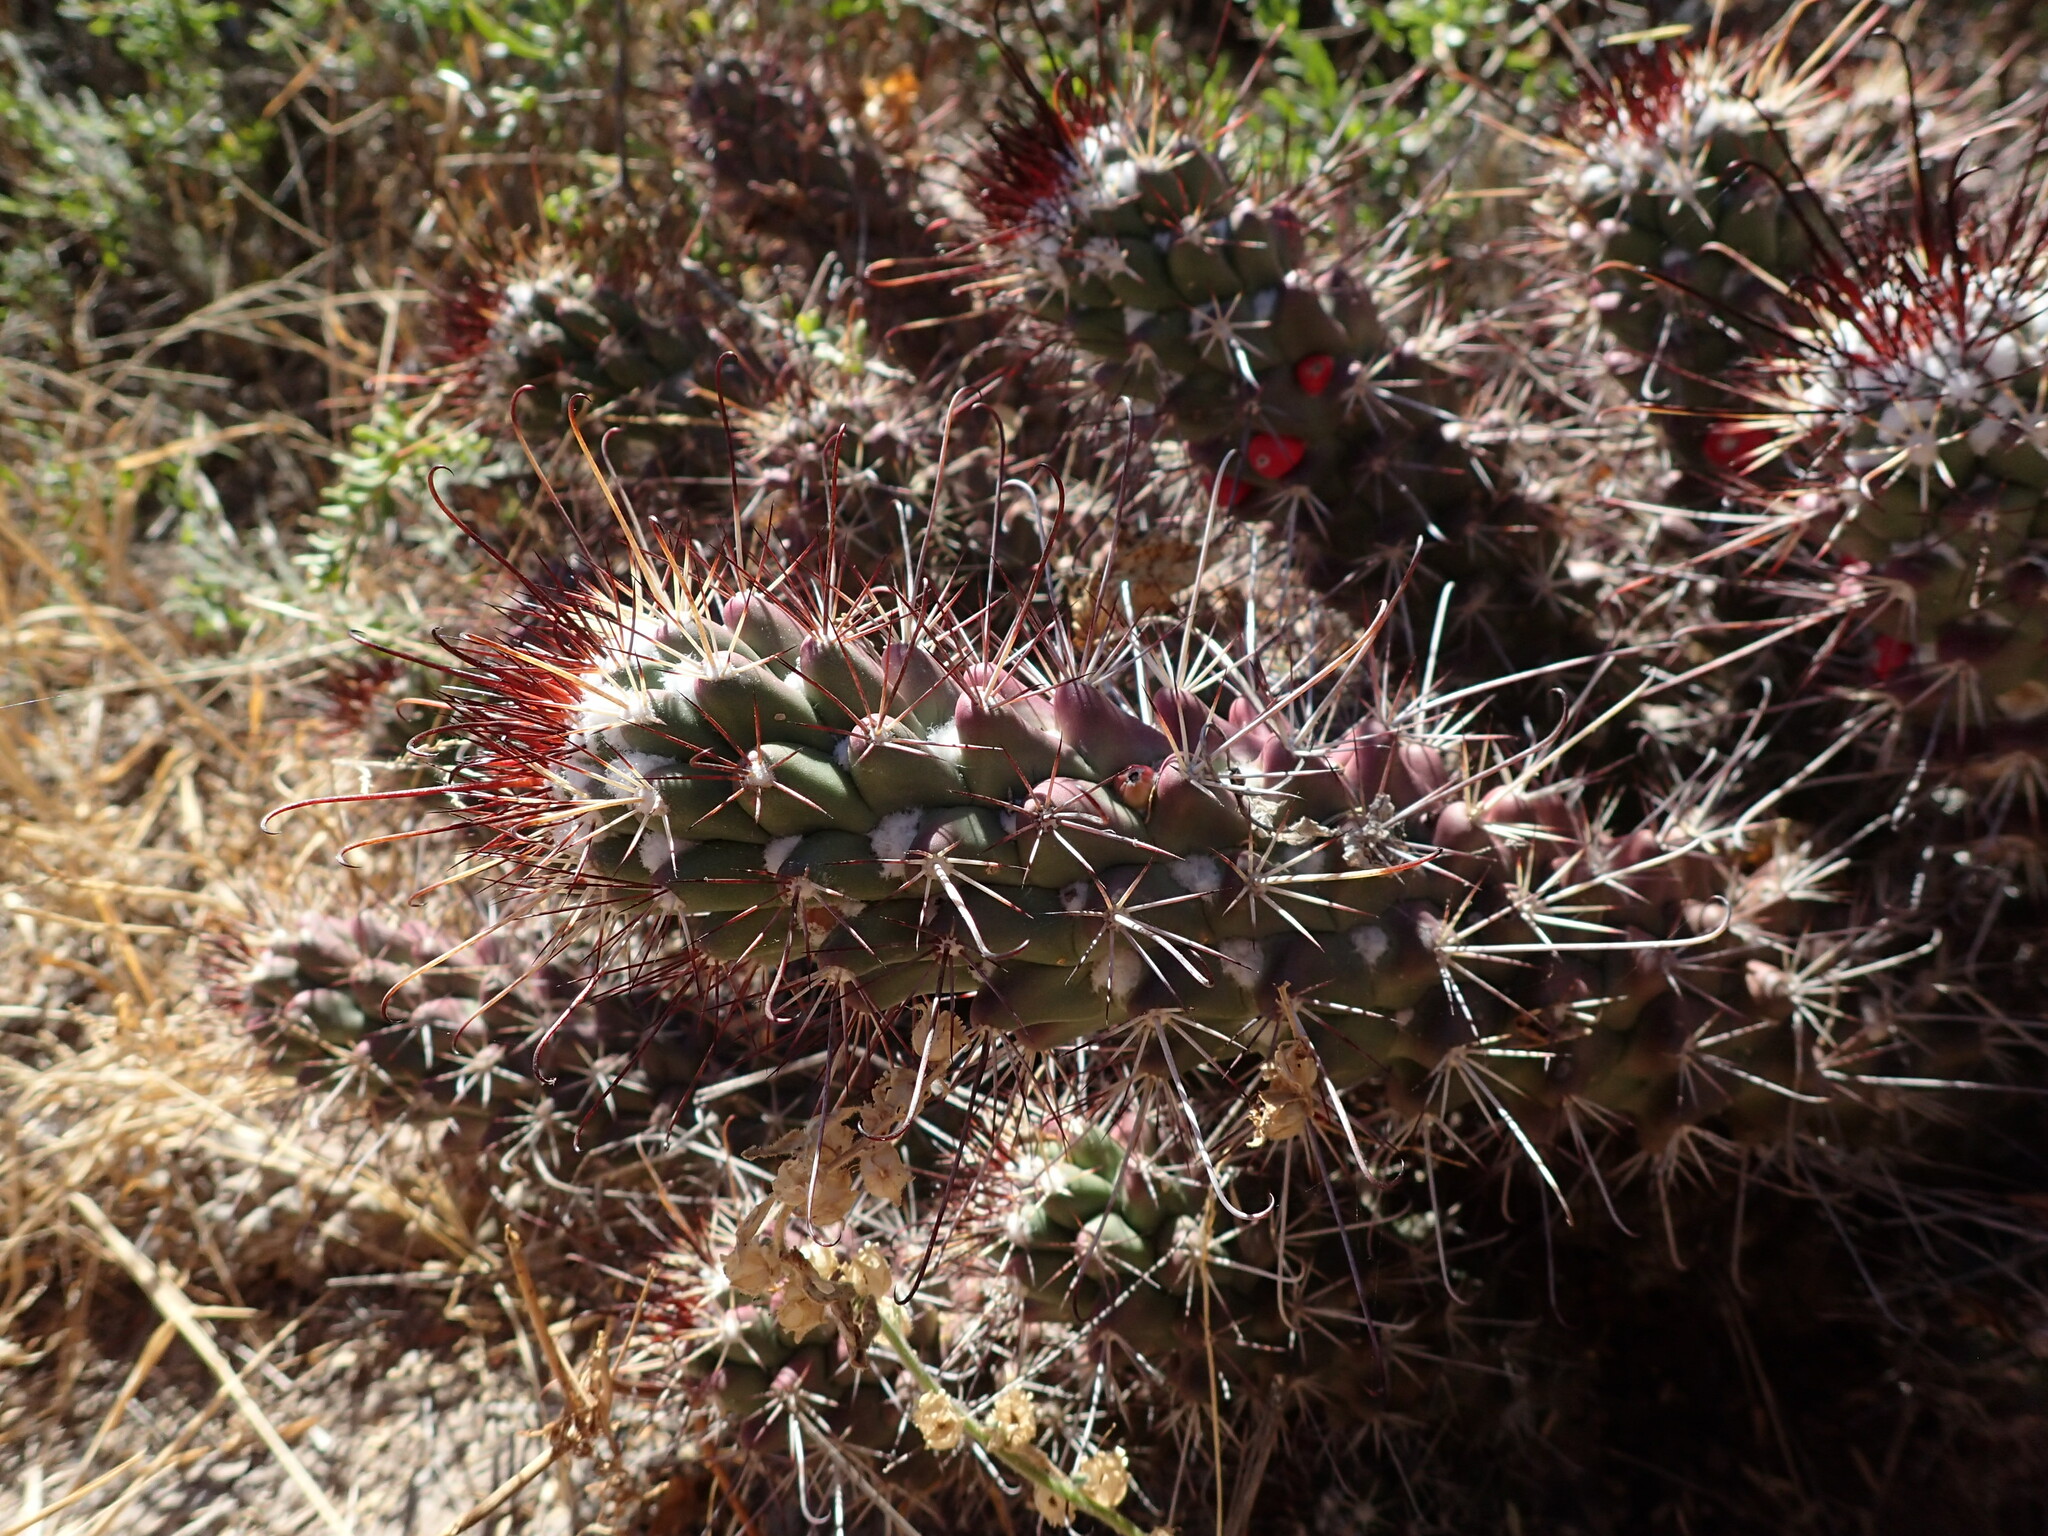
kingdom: Plantae
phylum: Tracheophyta
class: Magnoliopsida
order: Caryophyllales
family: Cactaceae
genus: Cochemiea
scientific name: Cochemiea poselgeri
